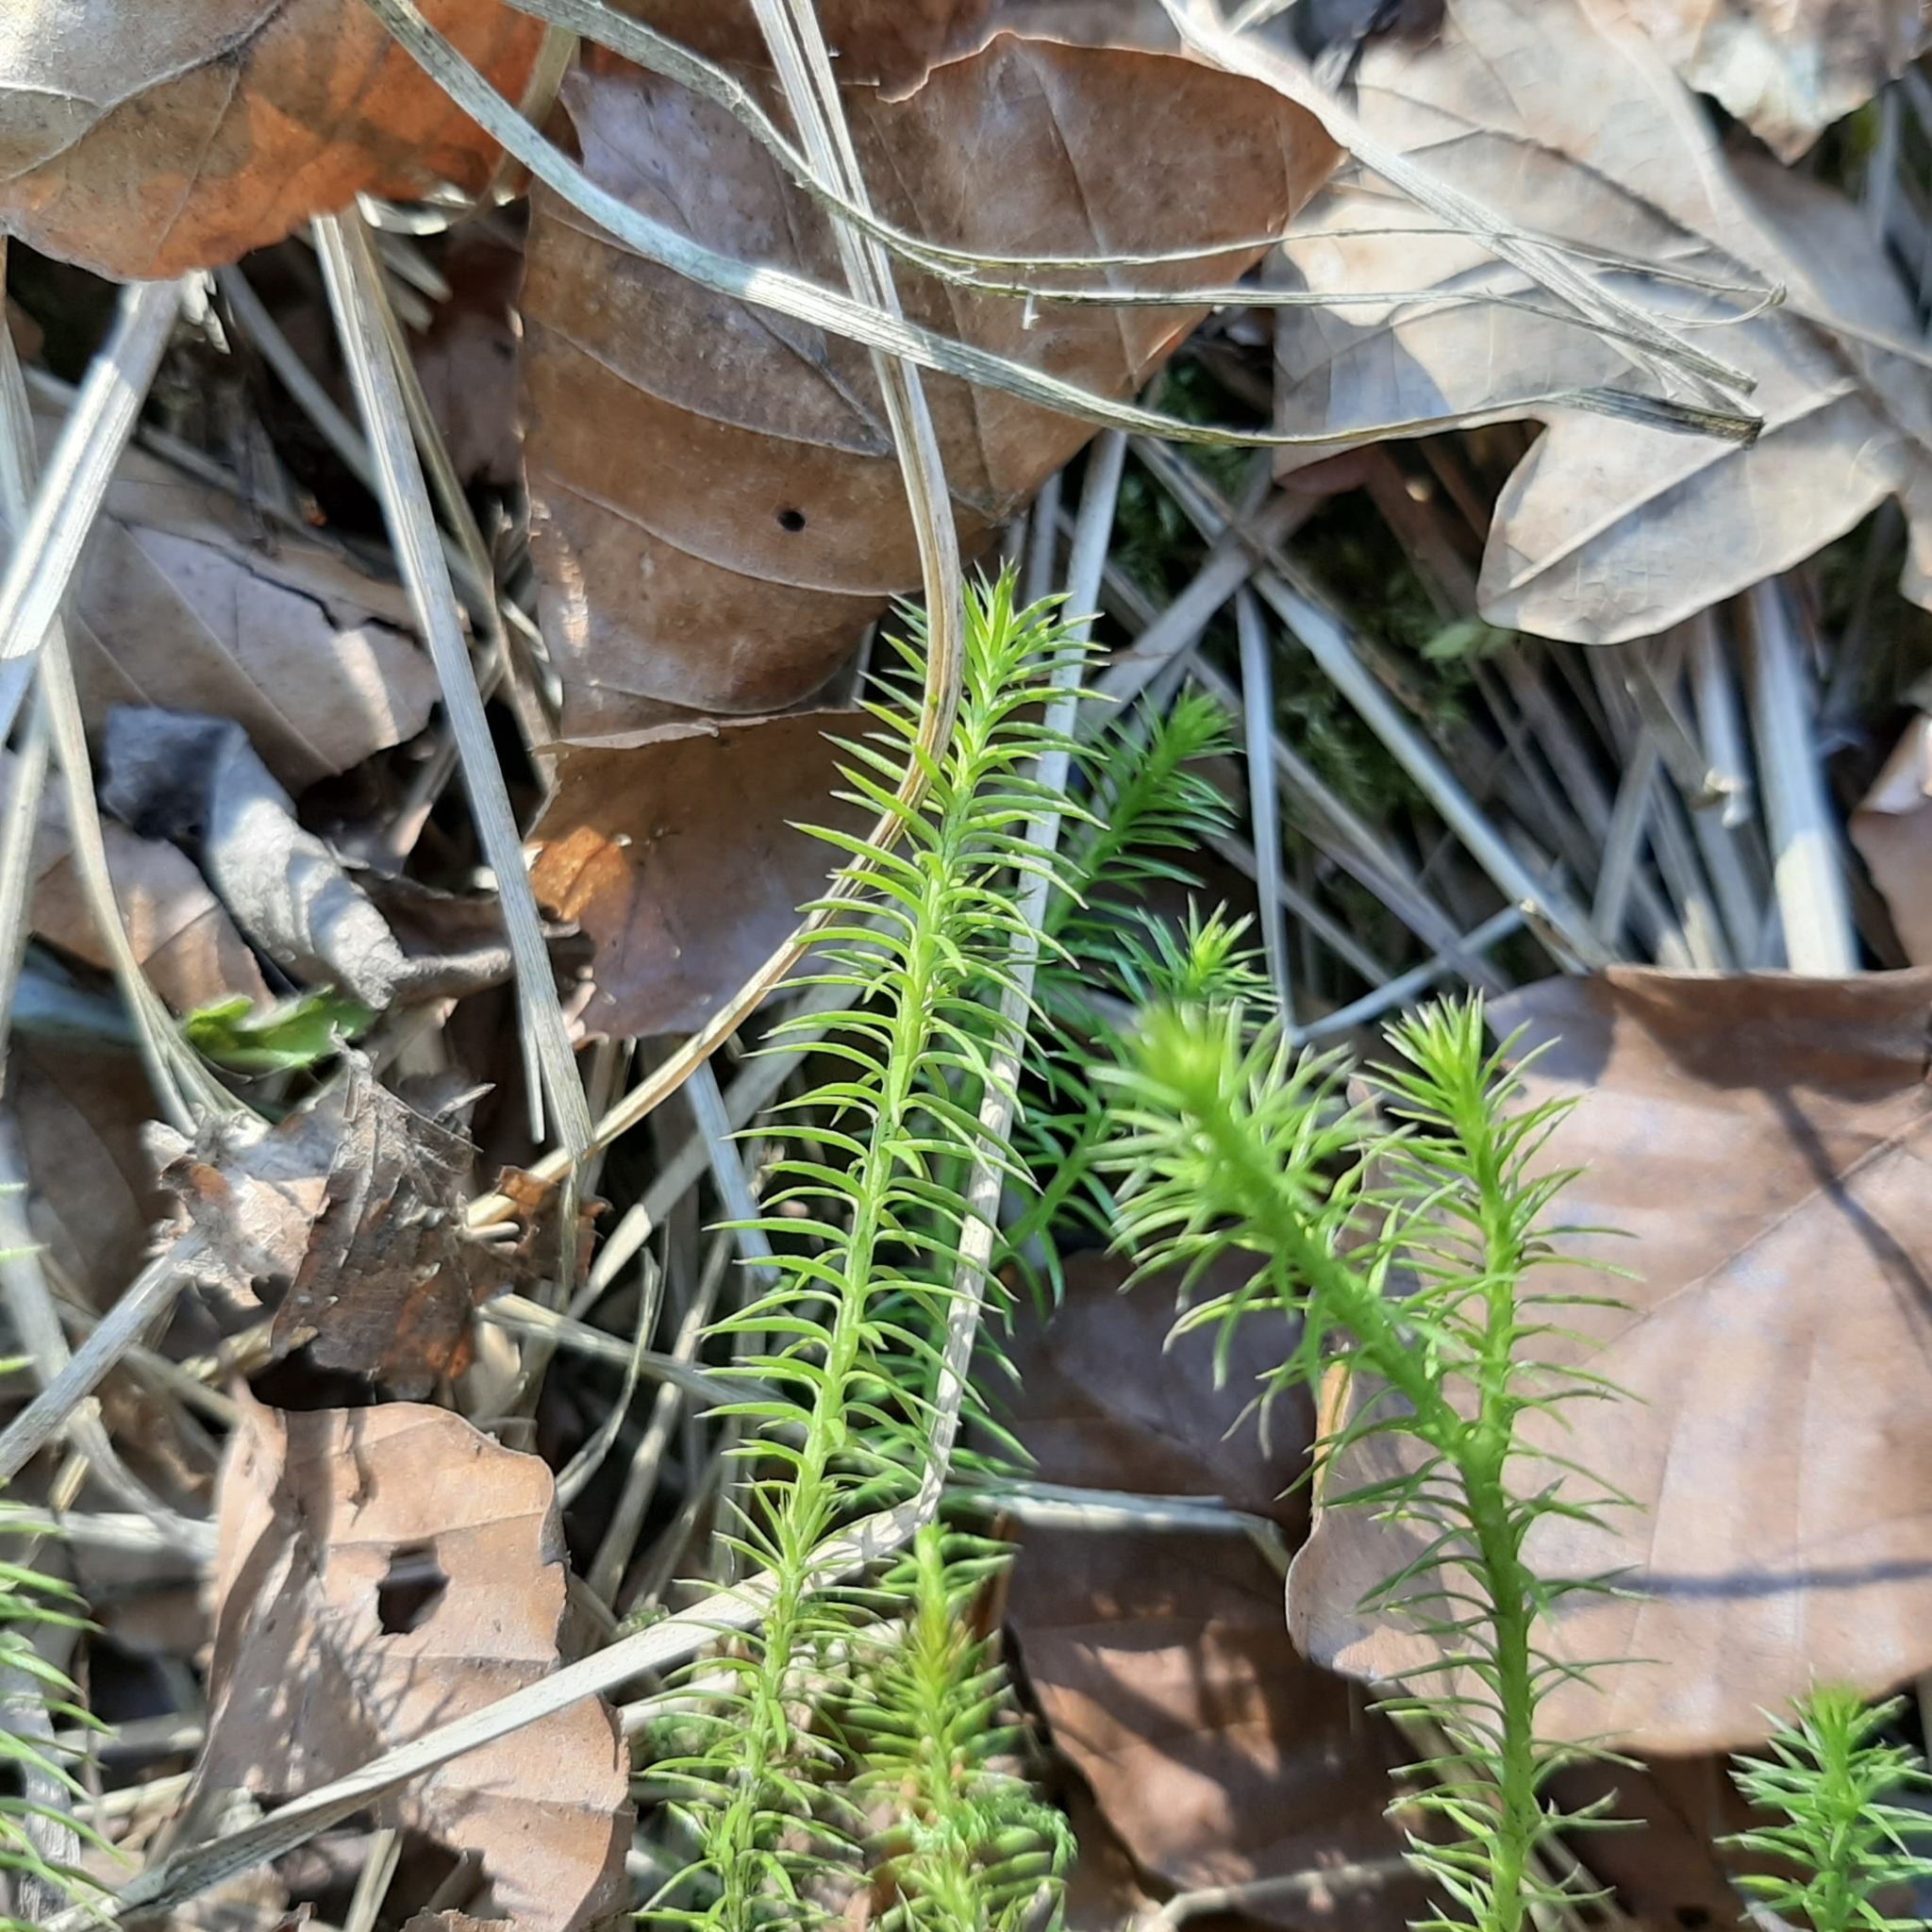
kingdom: Plantae
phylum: Tracheophyta
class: Lycopodiopsida
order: Lycopodiales
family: Lycopodiaceae
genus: Spinulum
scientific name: Spinulum annotinum
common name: Interrupted club-moss
